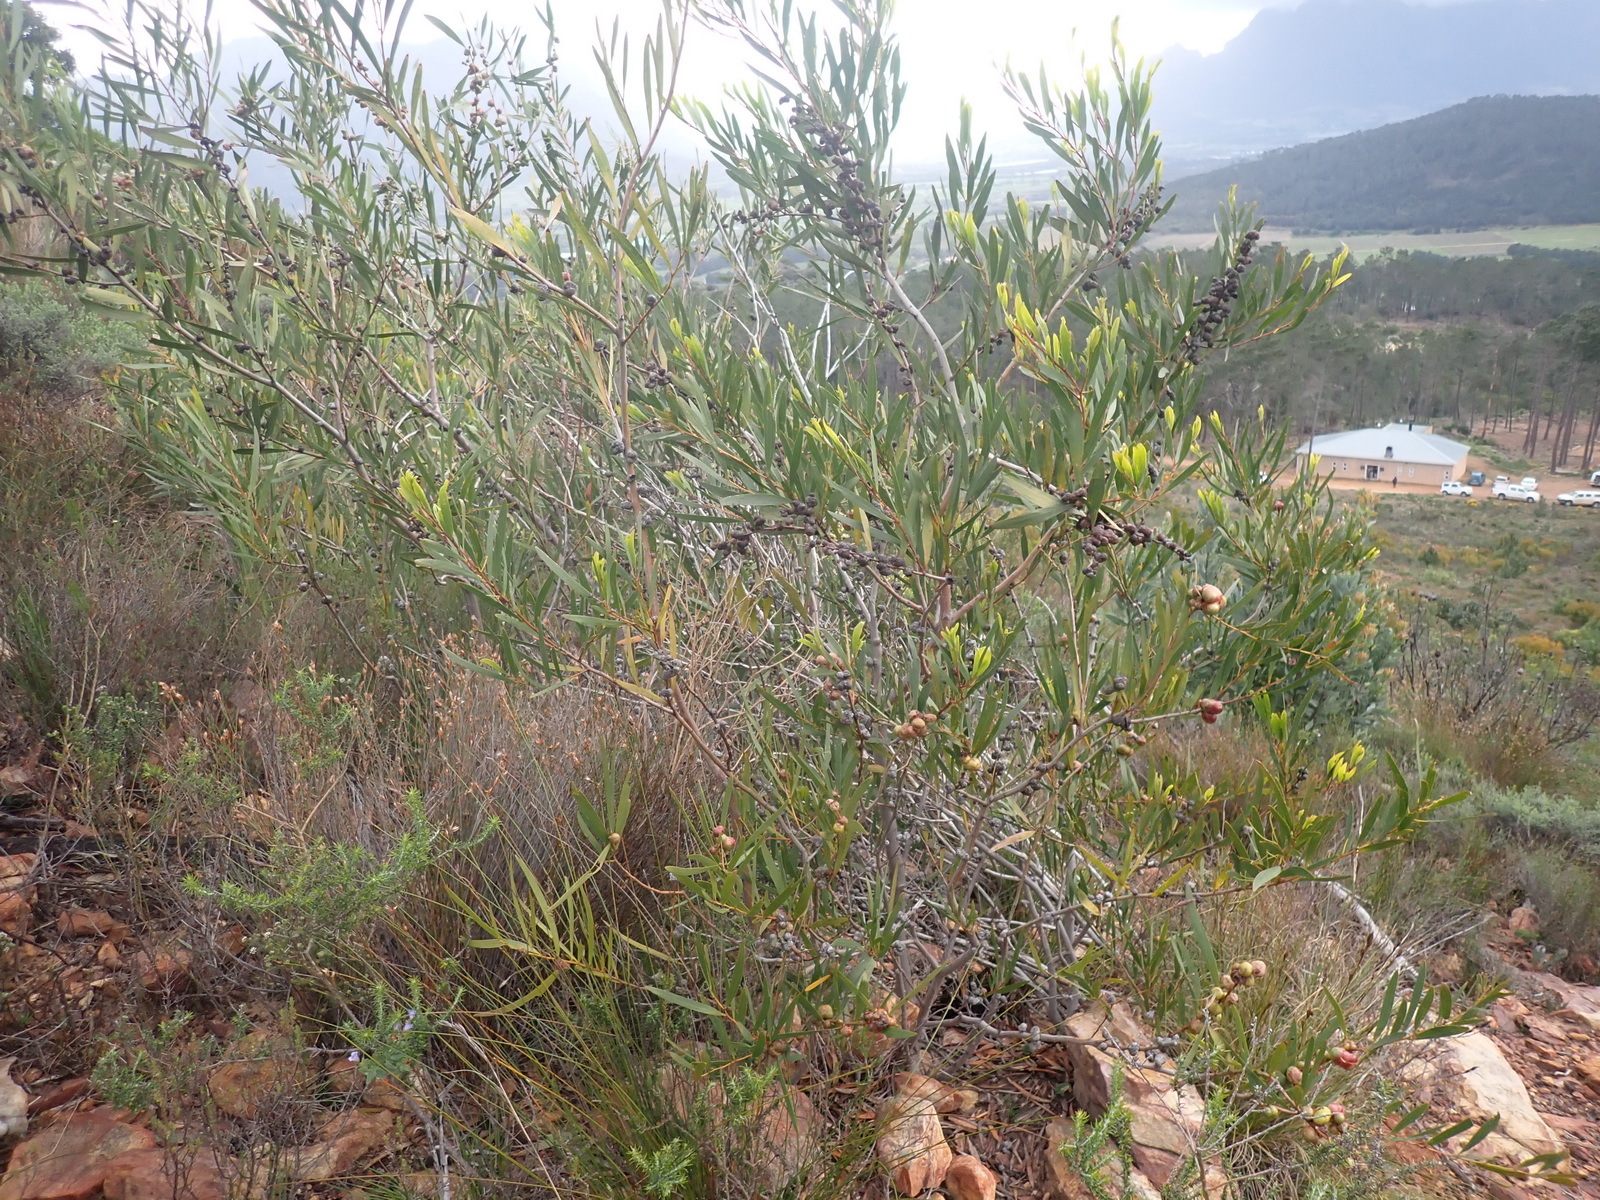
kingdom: Plantae
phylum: Tracheophyta
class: Magnoliopsida
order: Fabales
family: Fabaceae
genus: Acacia
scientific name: Acacia longifolia
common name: Sydney golden wattle
